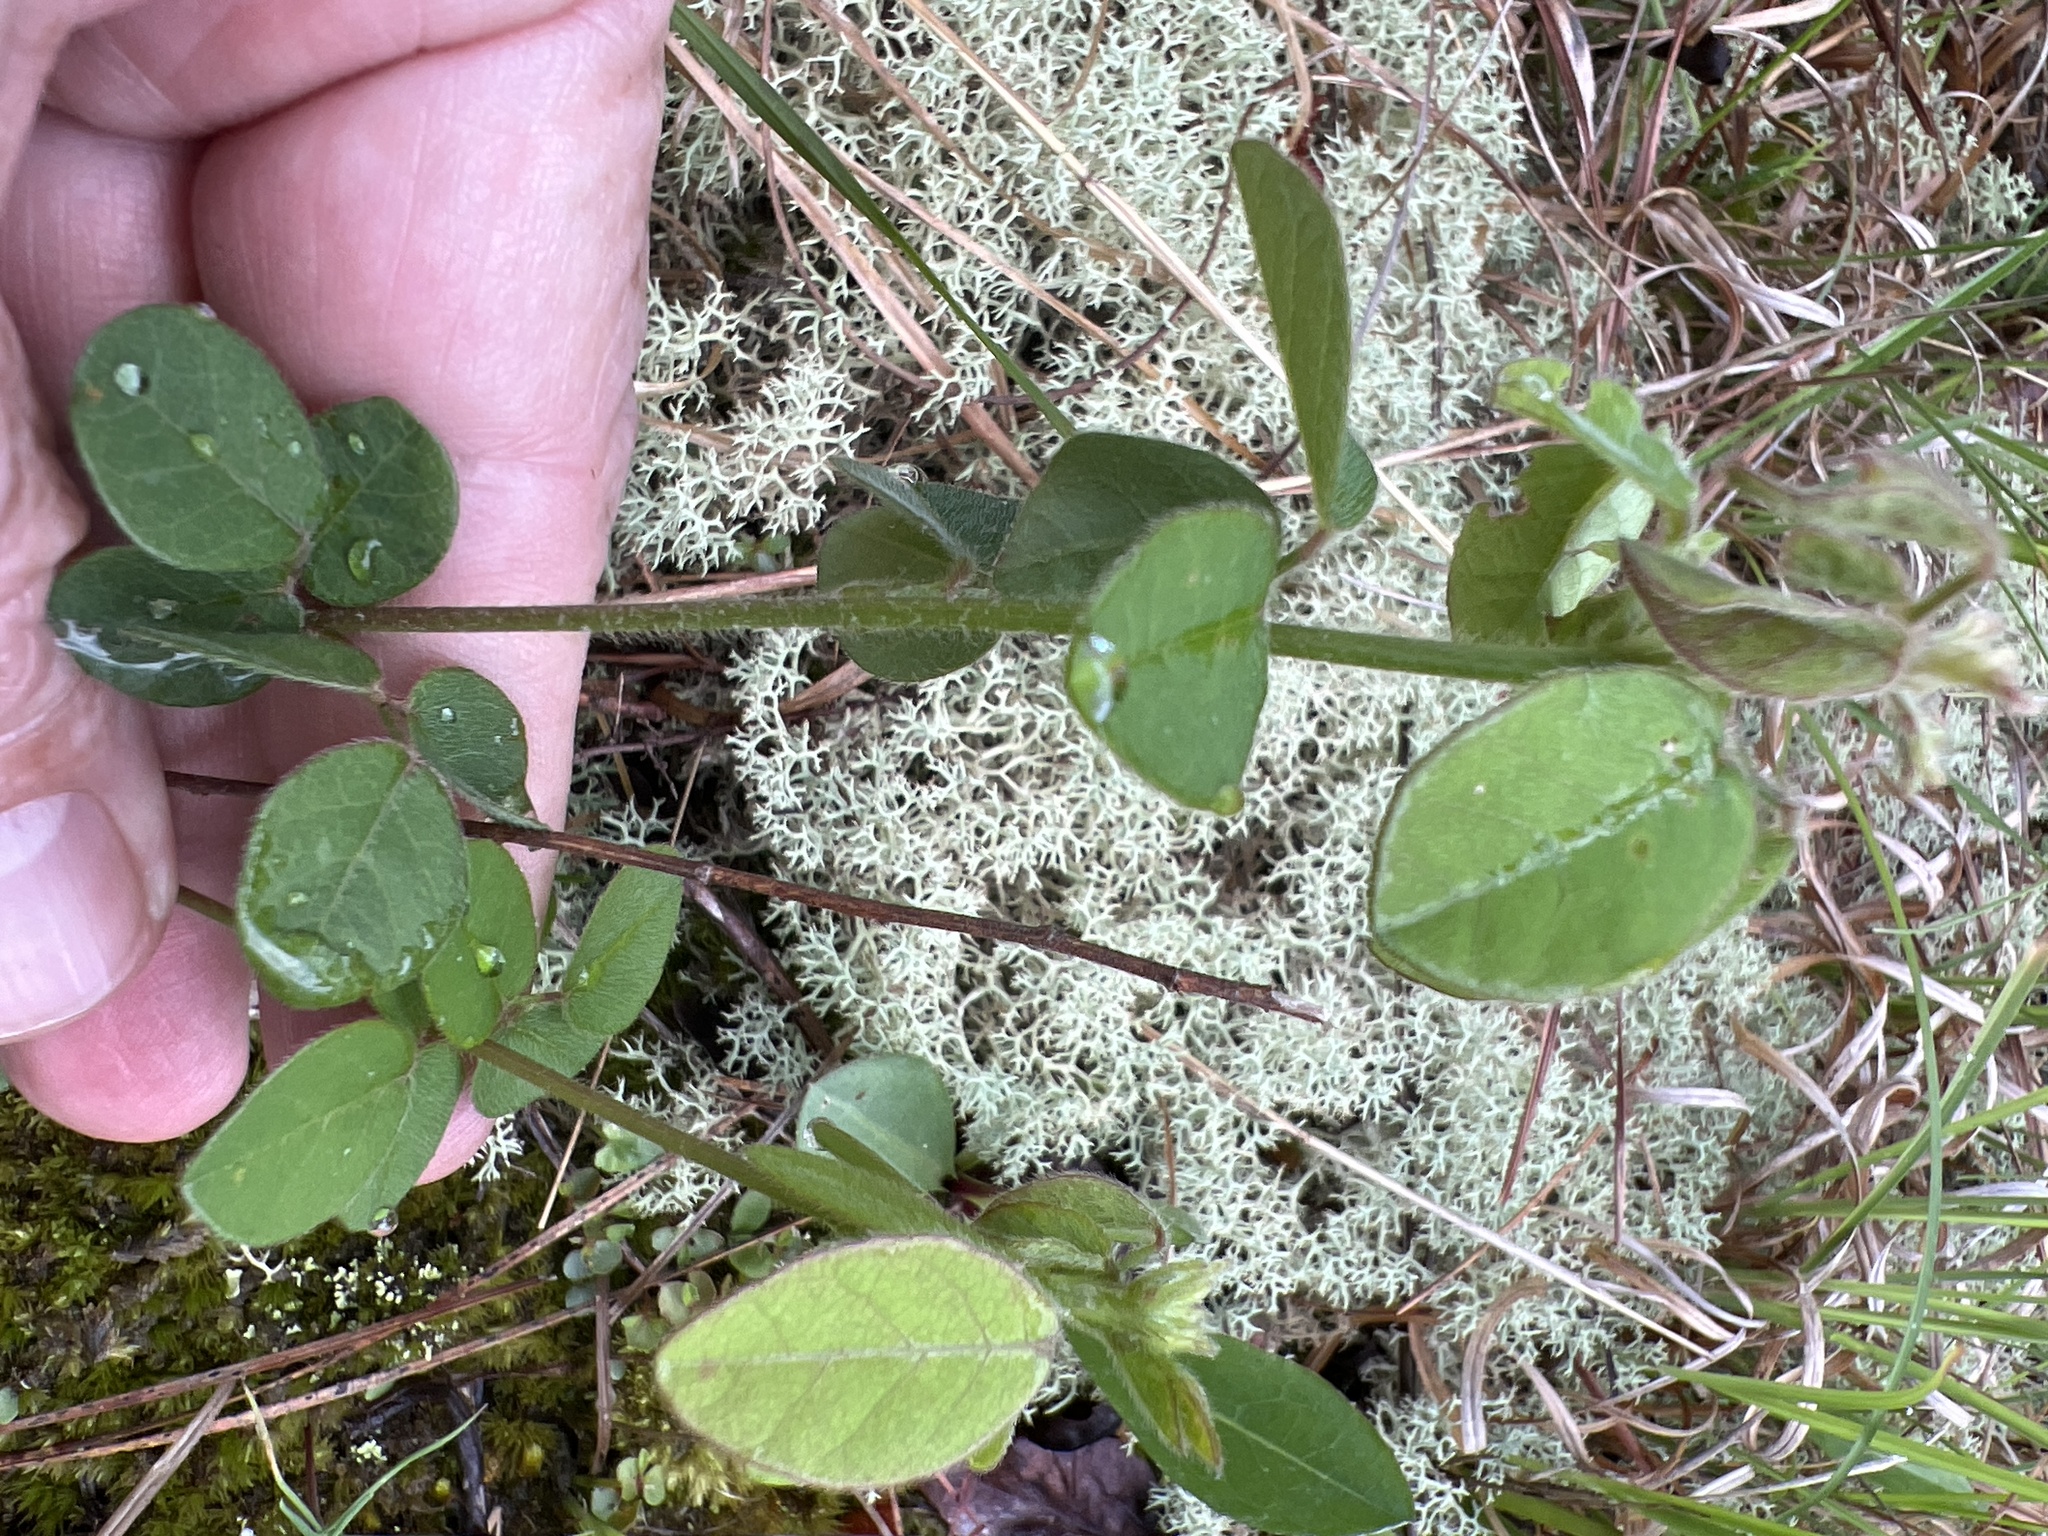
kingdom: Plantae
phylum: Tracheophyta
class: Magnoliopsida
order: Fabales
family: Fabaceae
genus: Desmodium
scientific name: Desmodium ciliare
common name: Hairy small-leaf ticktrefoil
